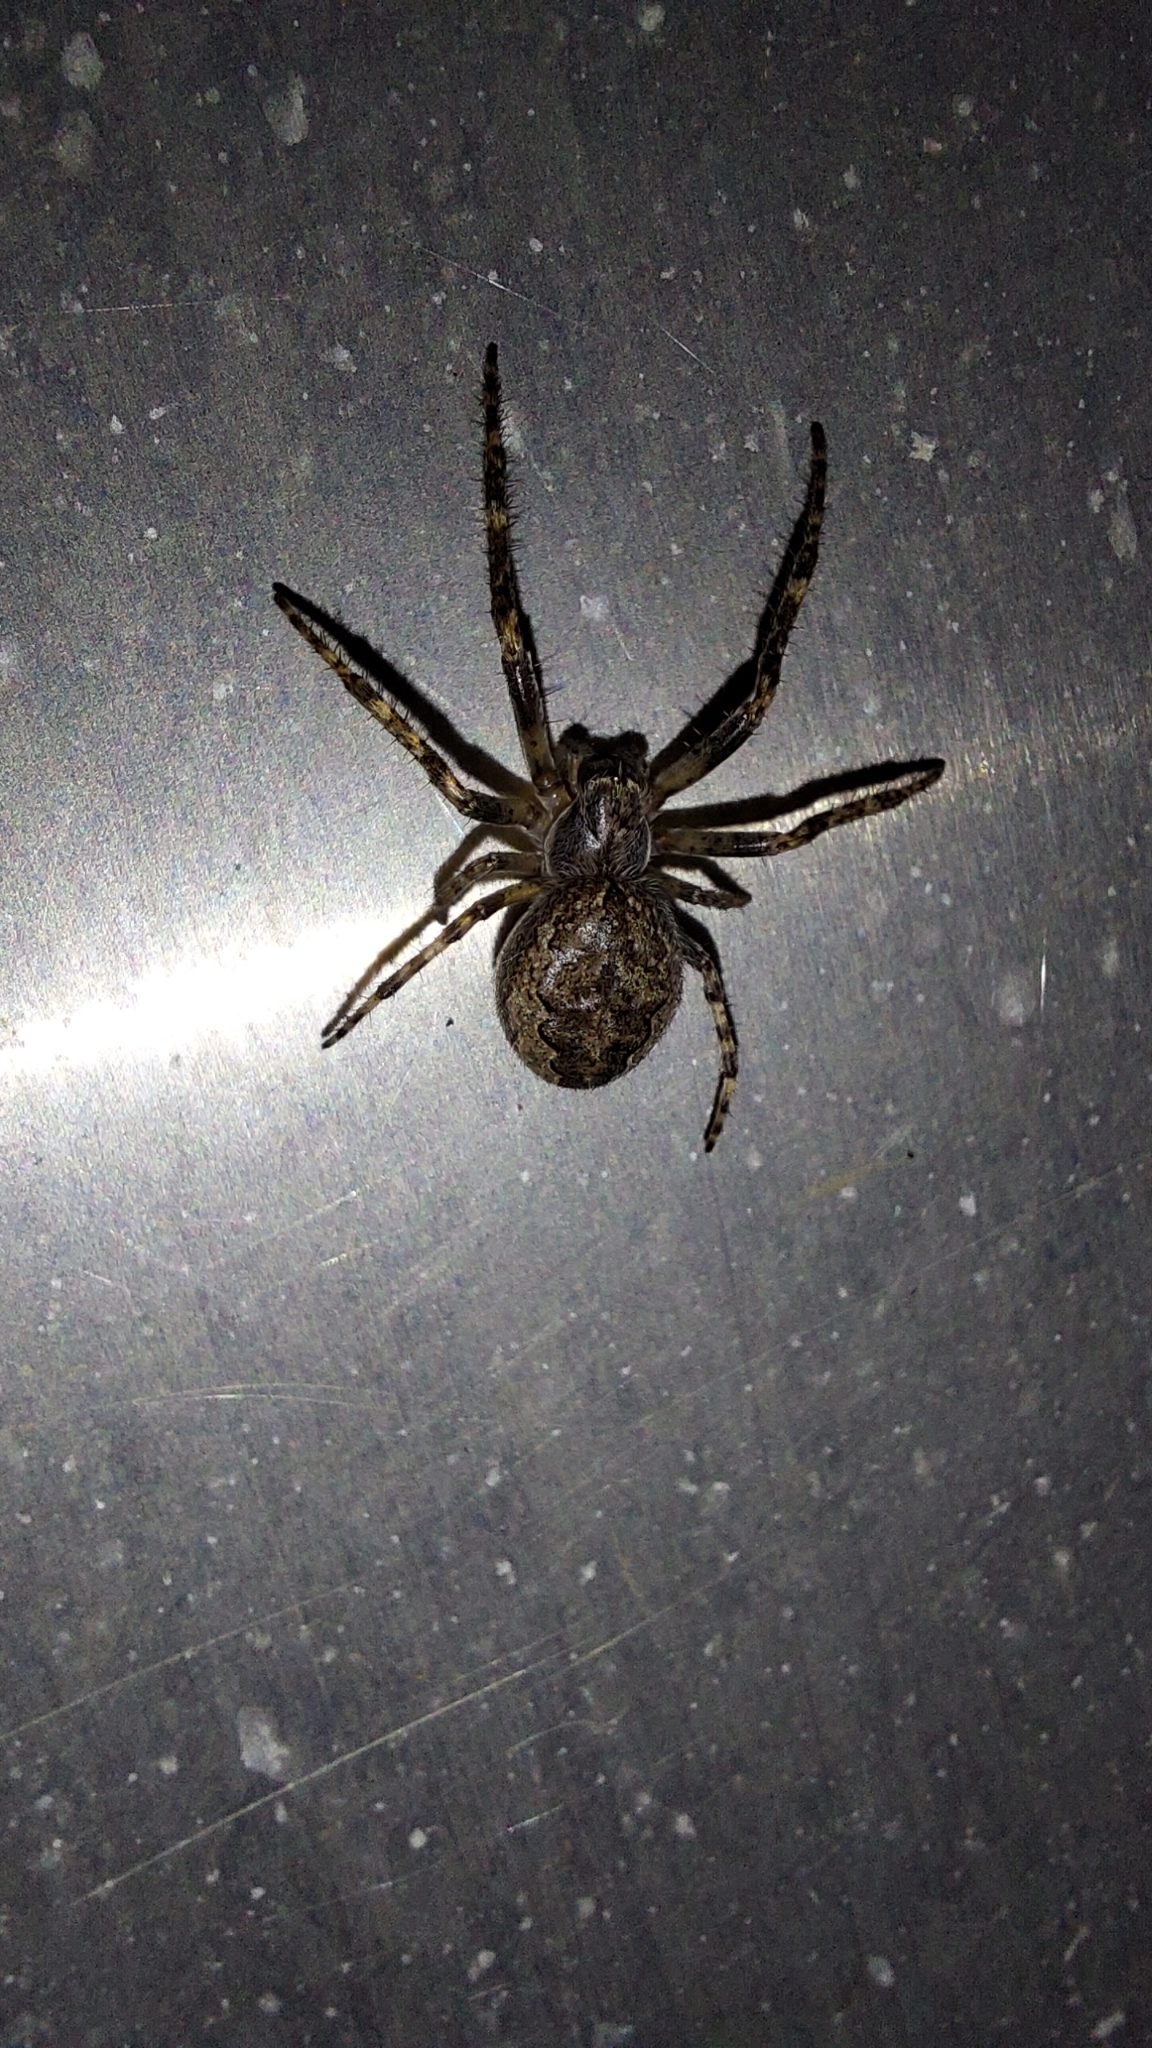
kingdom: Animalia
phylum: Arthropoda
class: Arachnida
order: Araneae
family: Araneidae
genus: Larinioides
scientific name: Larinioides ixobolus
